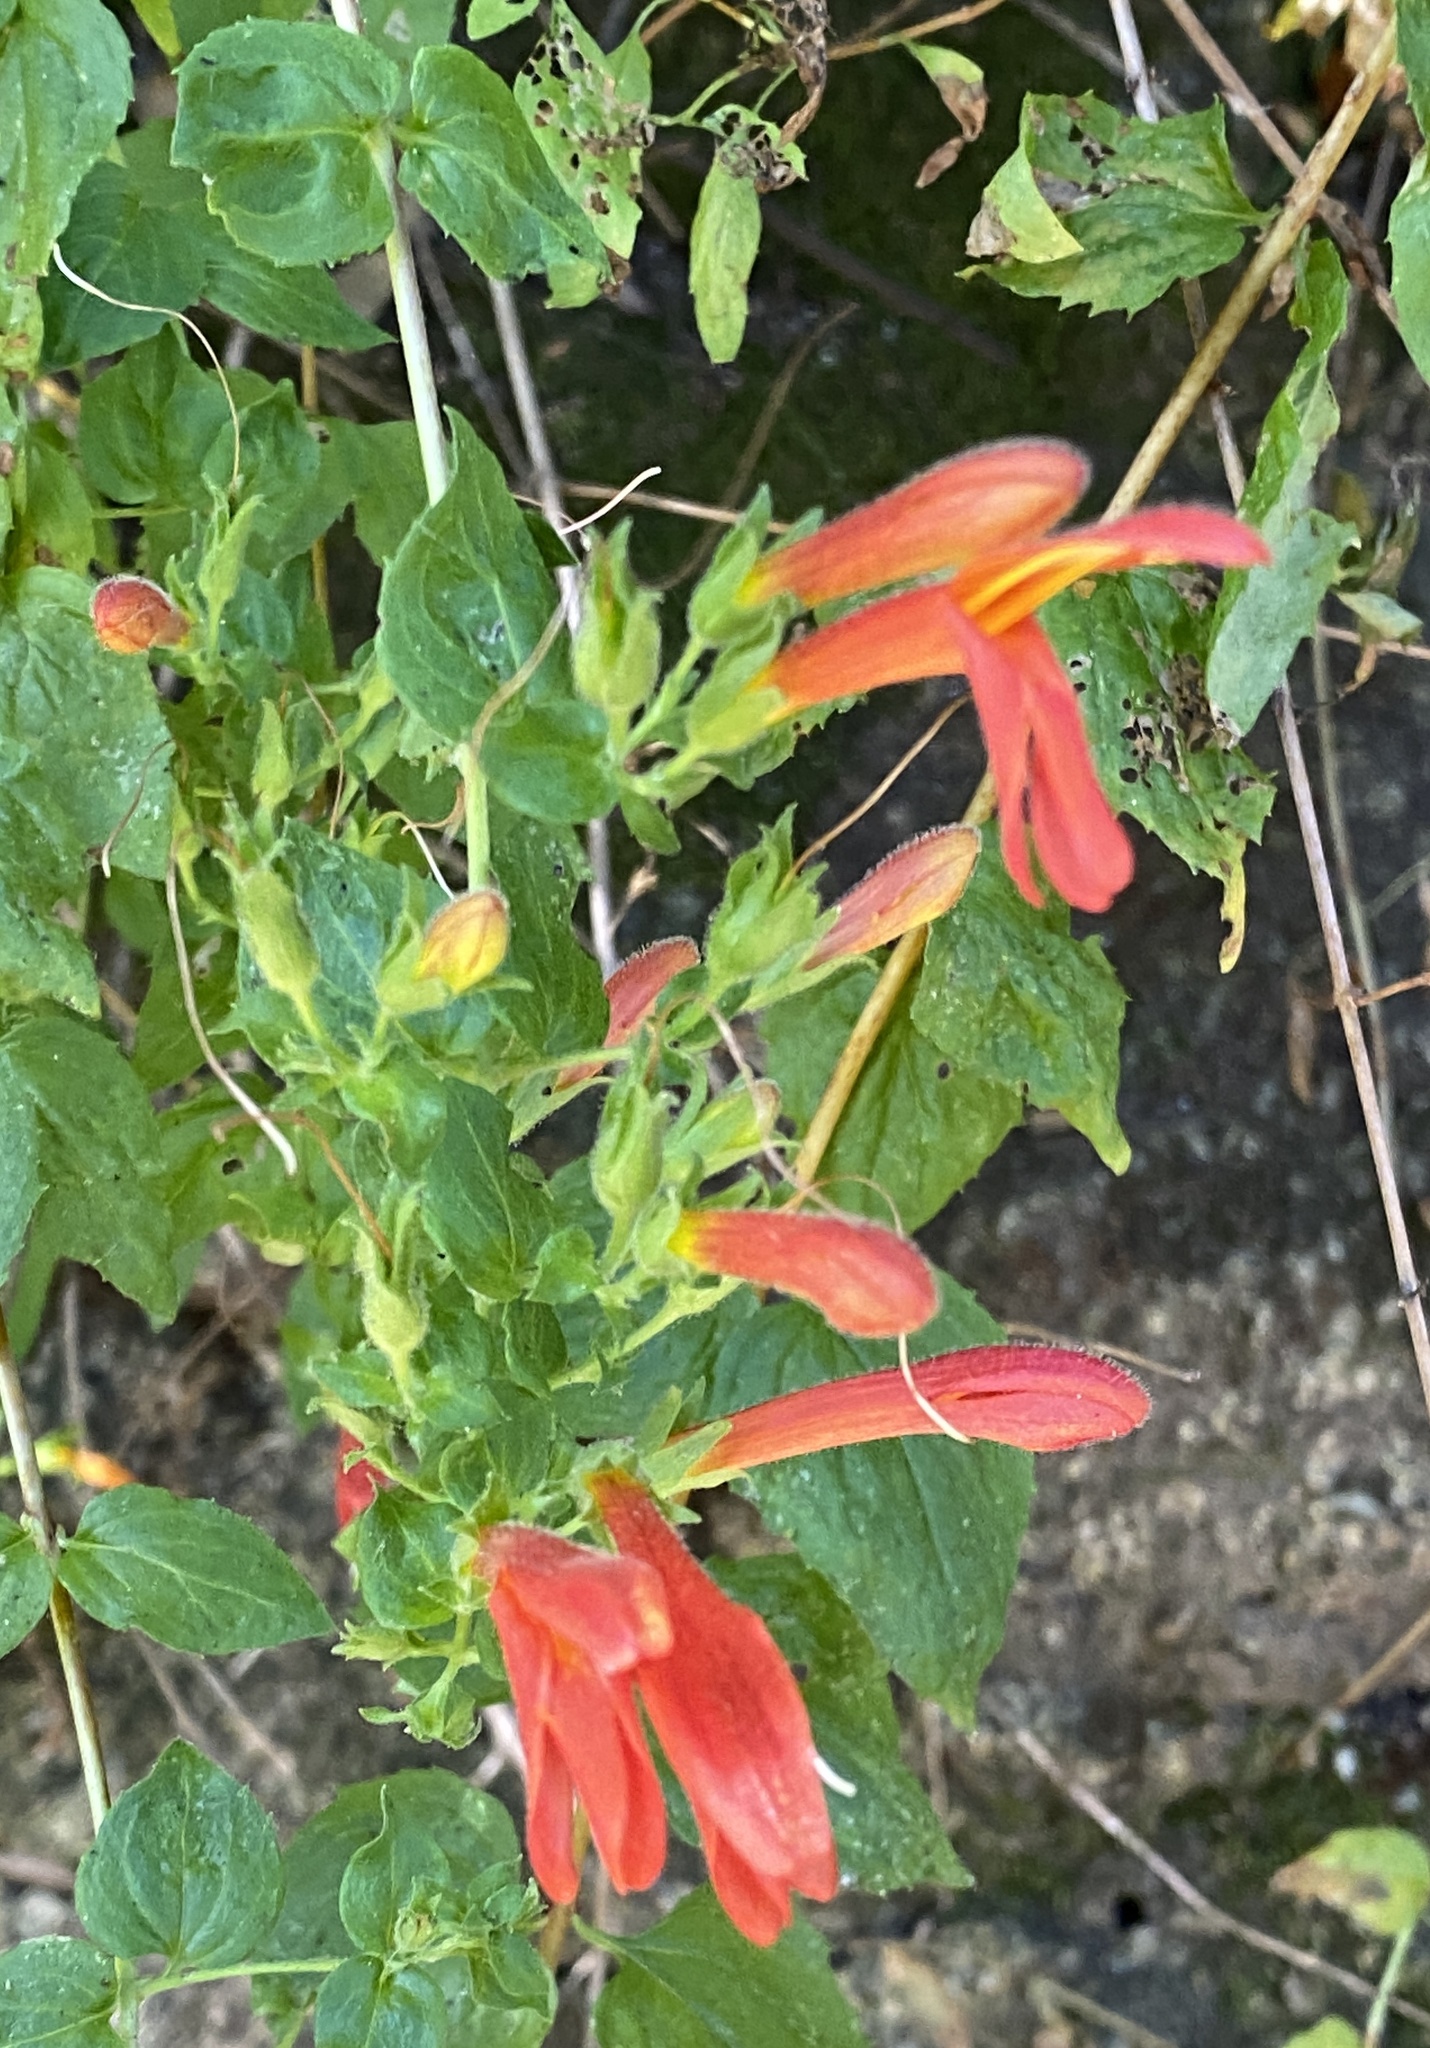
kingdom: Plantae
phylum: Tracheophyta
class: Magnoliopsida
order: Lamiales
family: Plantaginaceae
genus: Keckiella
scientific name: Keckiella cordifolia
